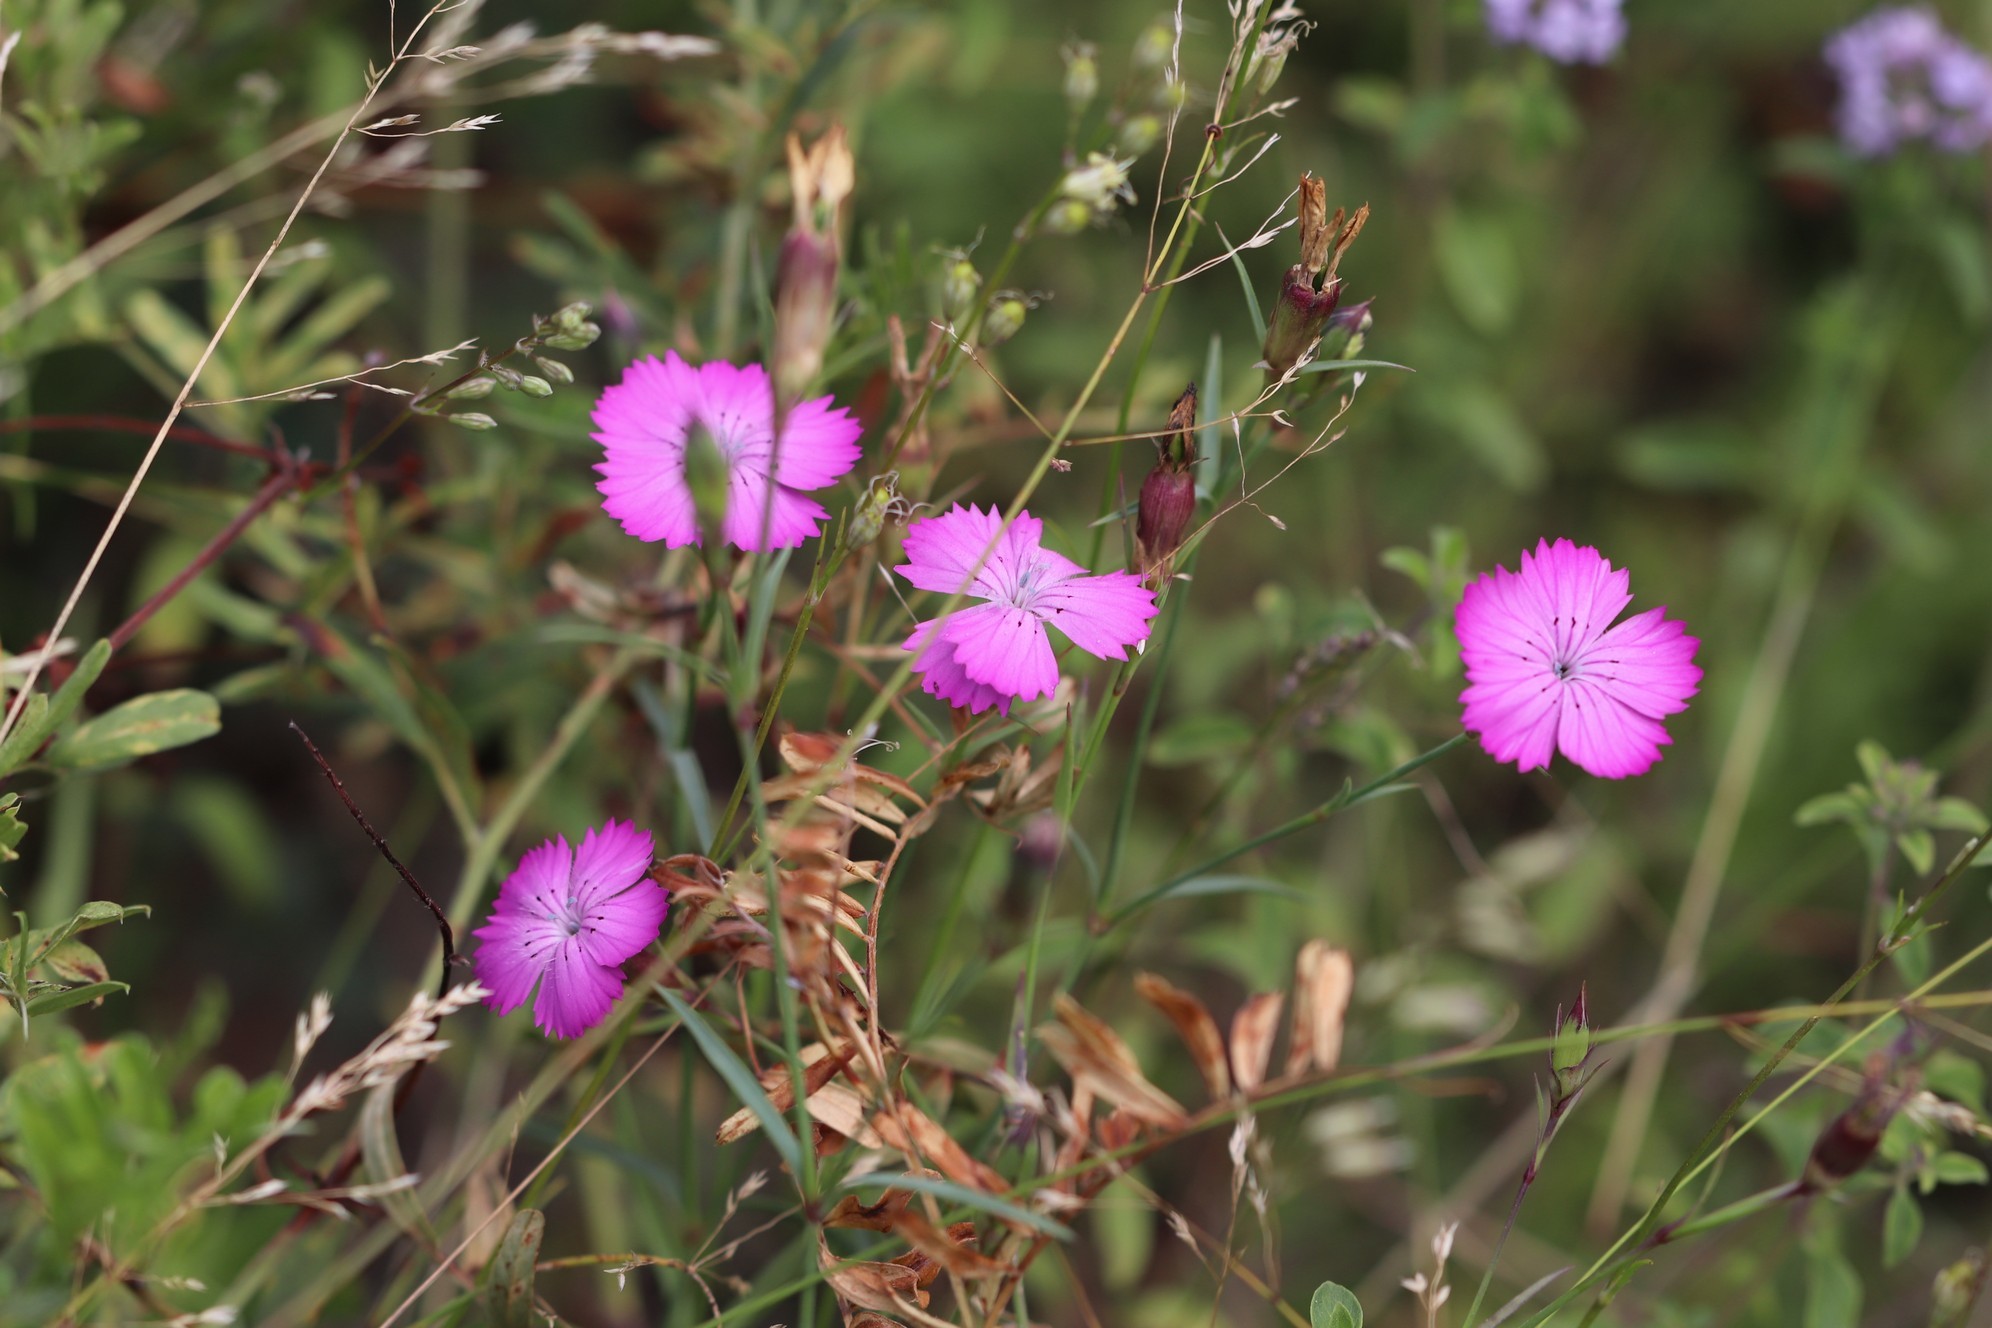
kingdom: Plantae
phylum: Tracheophyta
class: Magnoliopsida
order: Caryophyllales
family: Caryophyllaceae
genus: Dianthus
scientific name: Dianthus chinensis
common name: Rainbow pink
